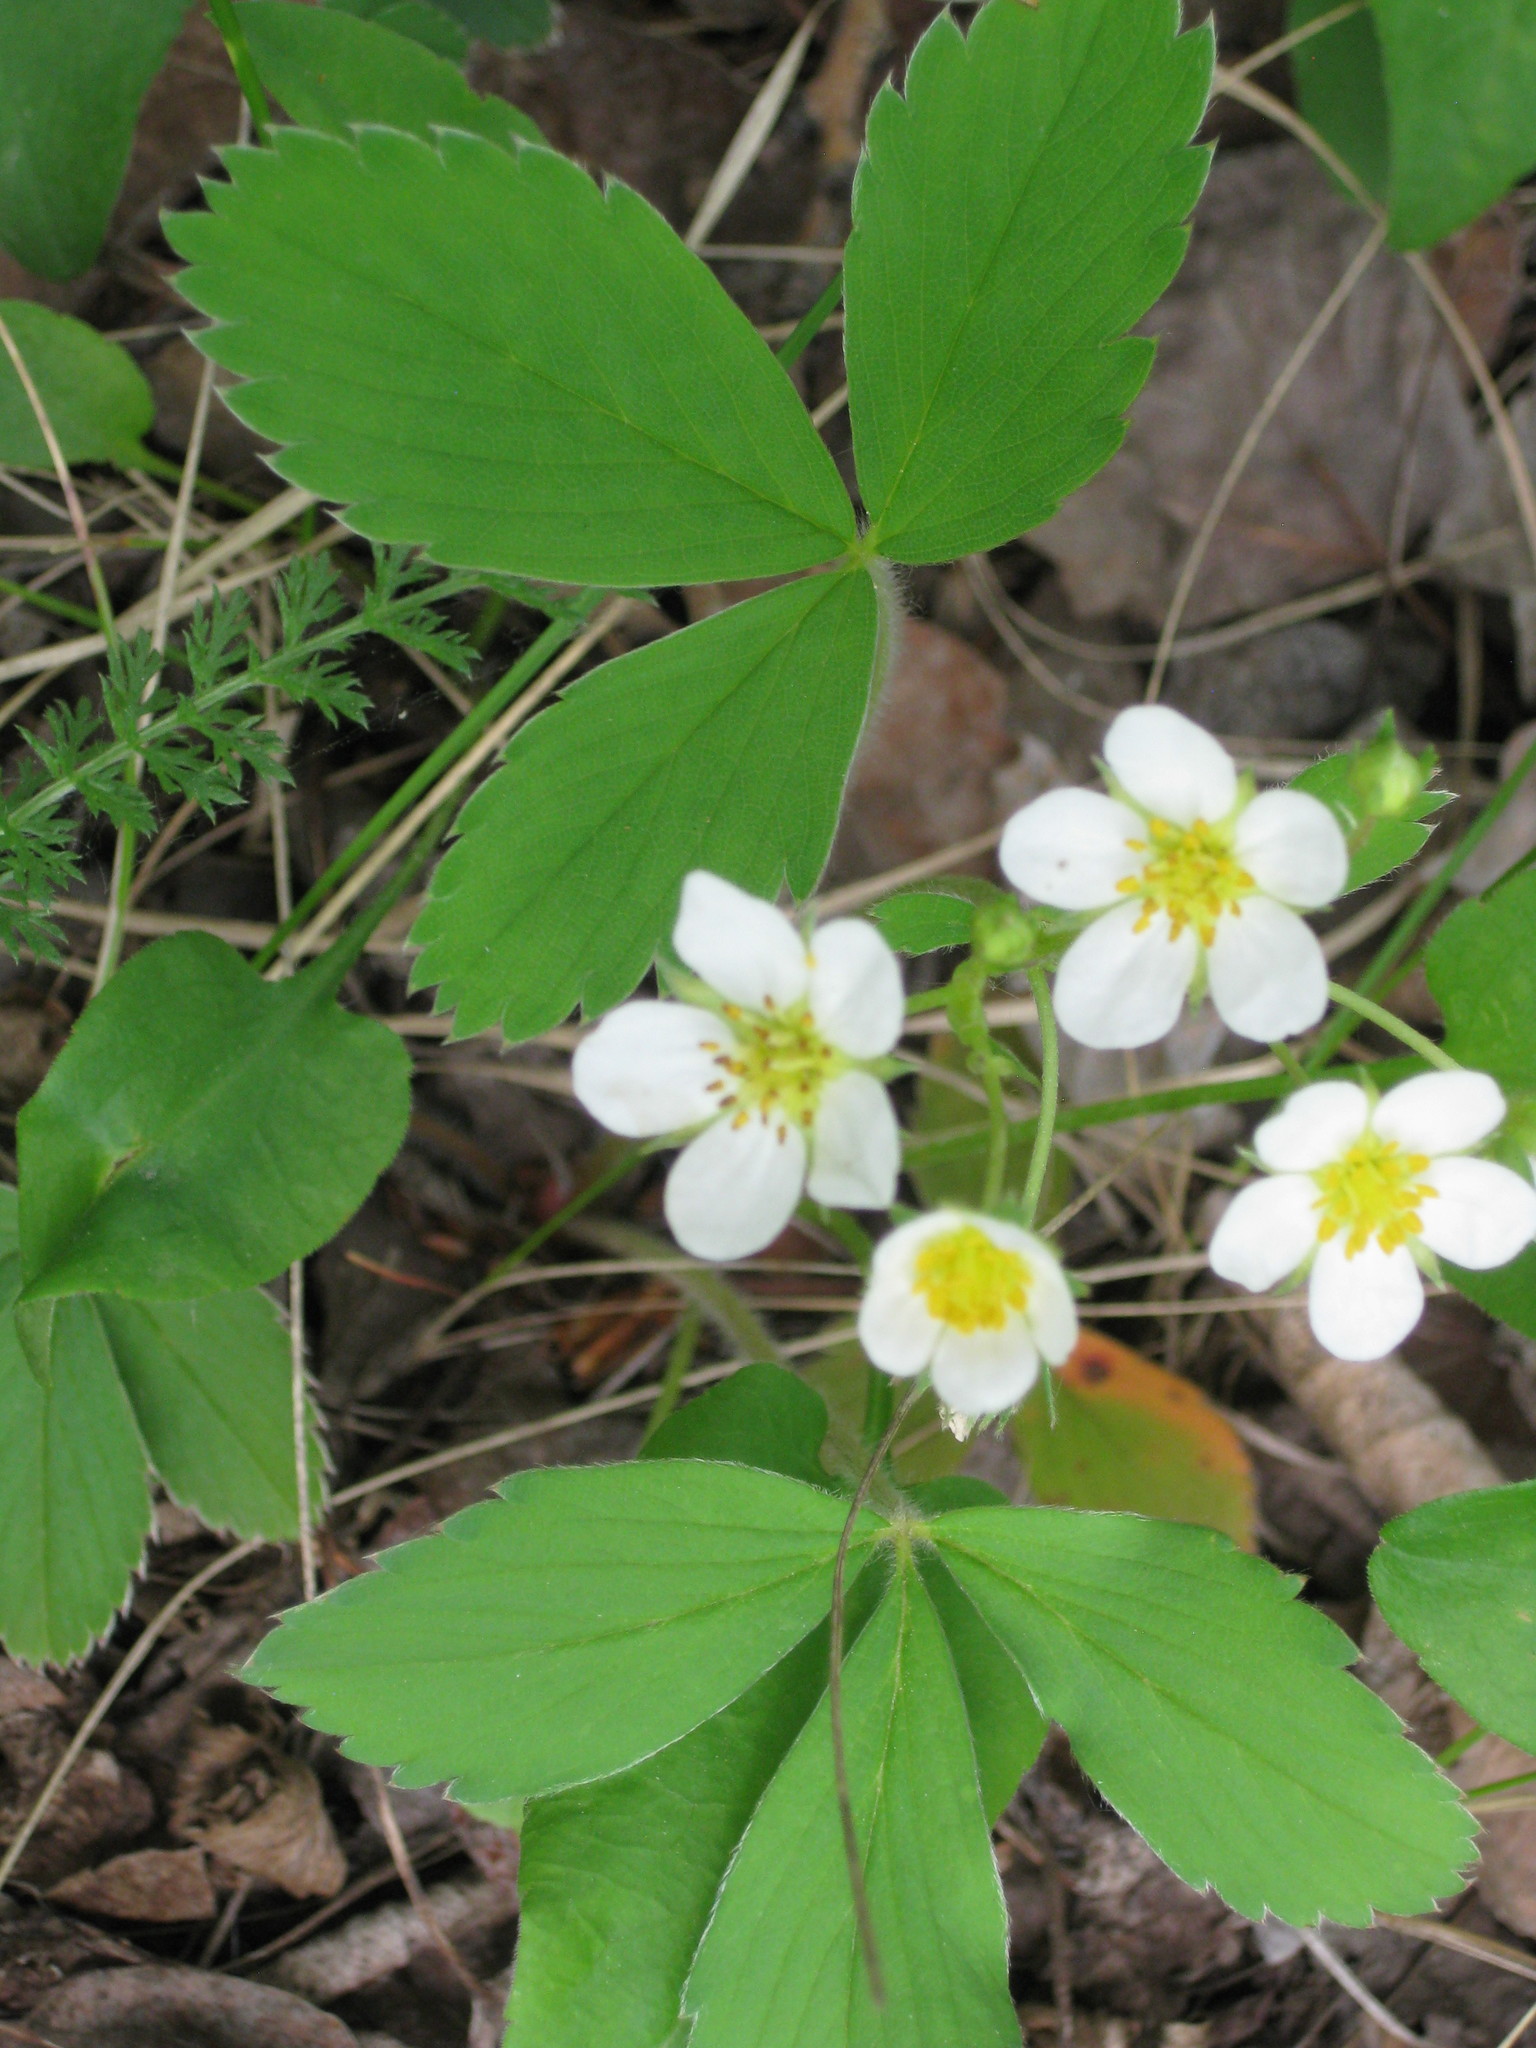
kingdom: Plantae
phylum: Tracheophyta
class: Magnoliopsida
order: Rosales
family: Rosaceae
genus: Fragaria
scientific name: Fragaria virginiana
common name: Thickleaved wild strawberry
